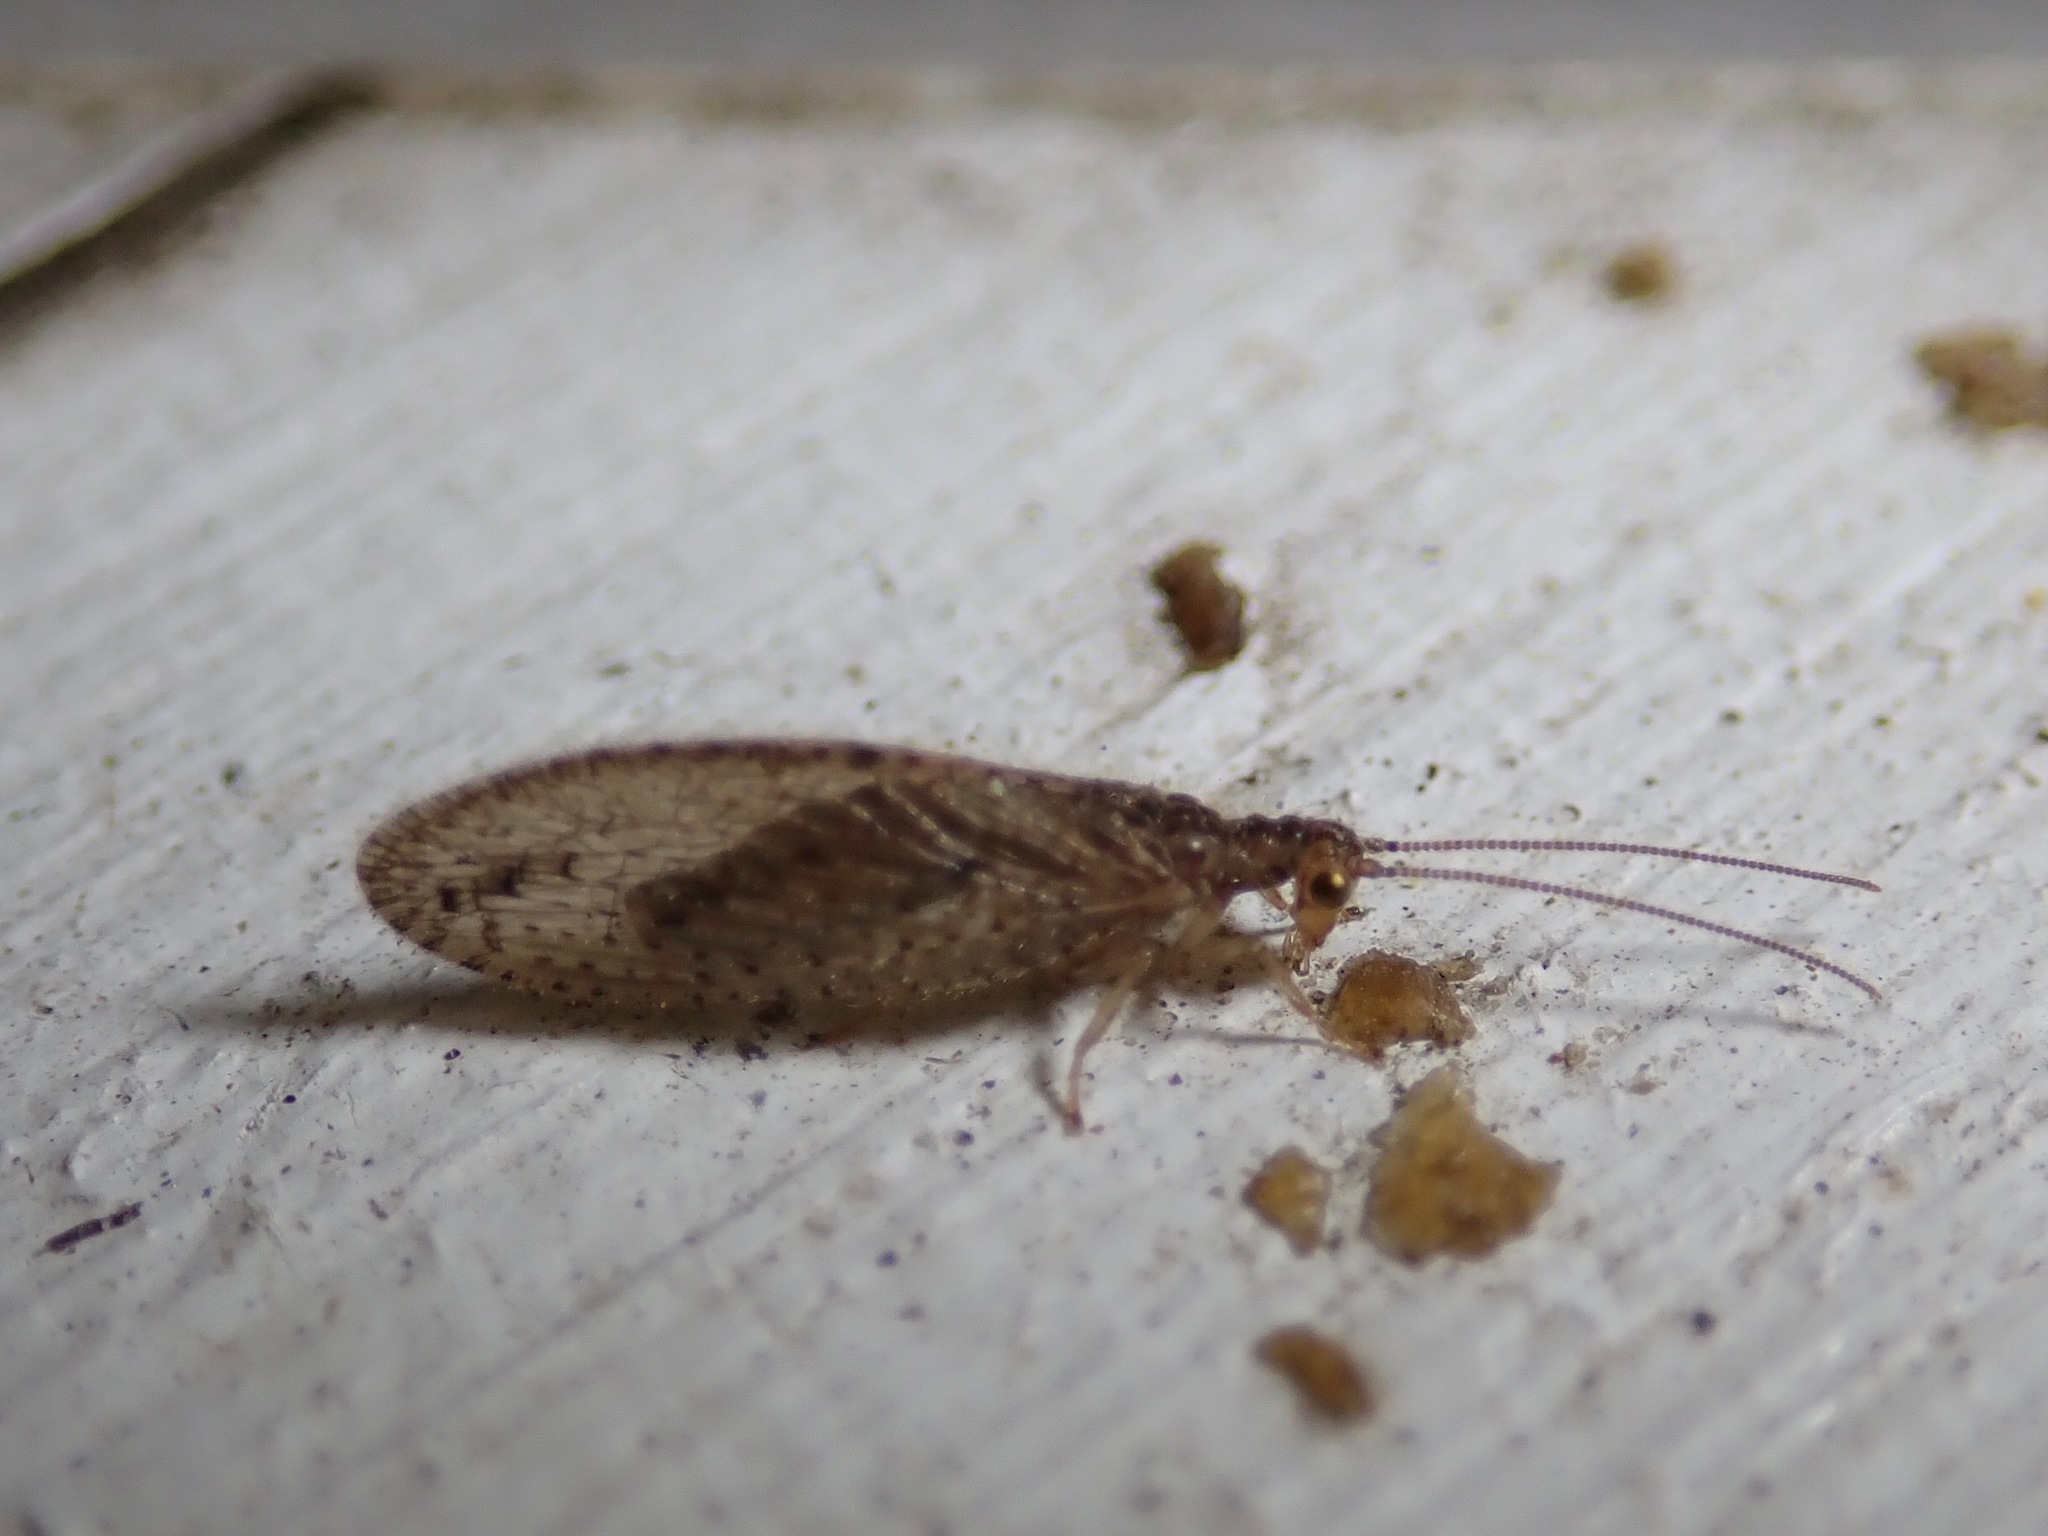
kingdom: Animalia
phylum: Arthropoda
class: Insecta
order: Neuroptera
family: Hemerobiidae
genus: Micromus
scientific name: Micromus tasmaniae
